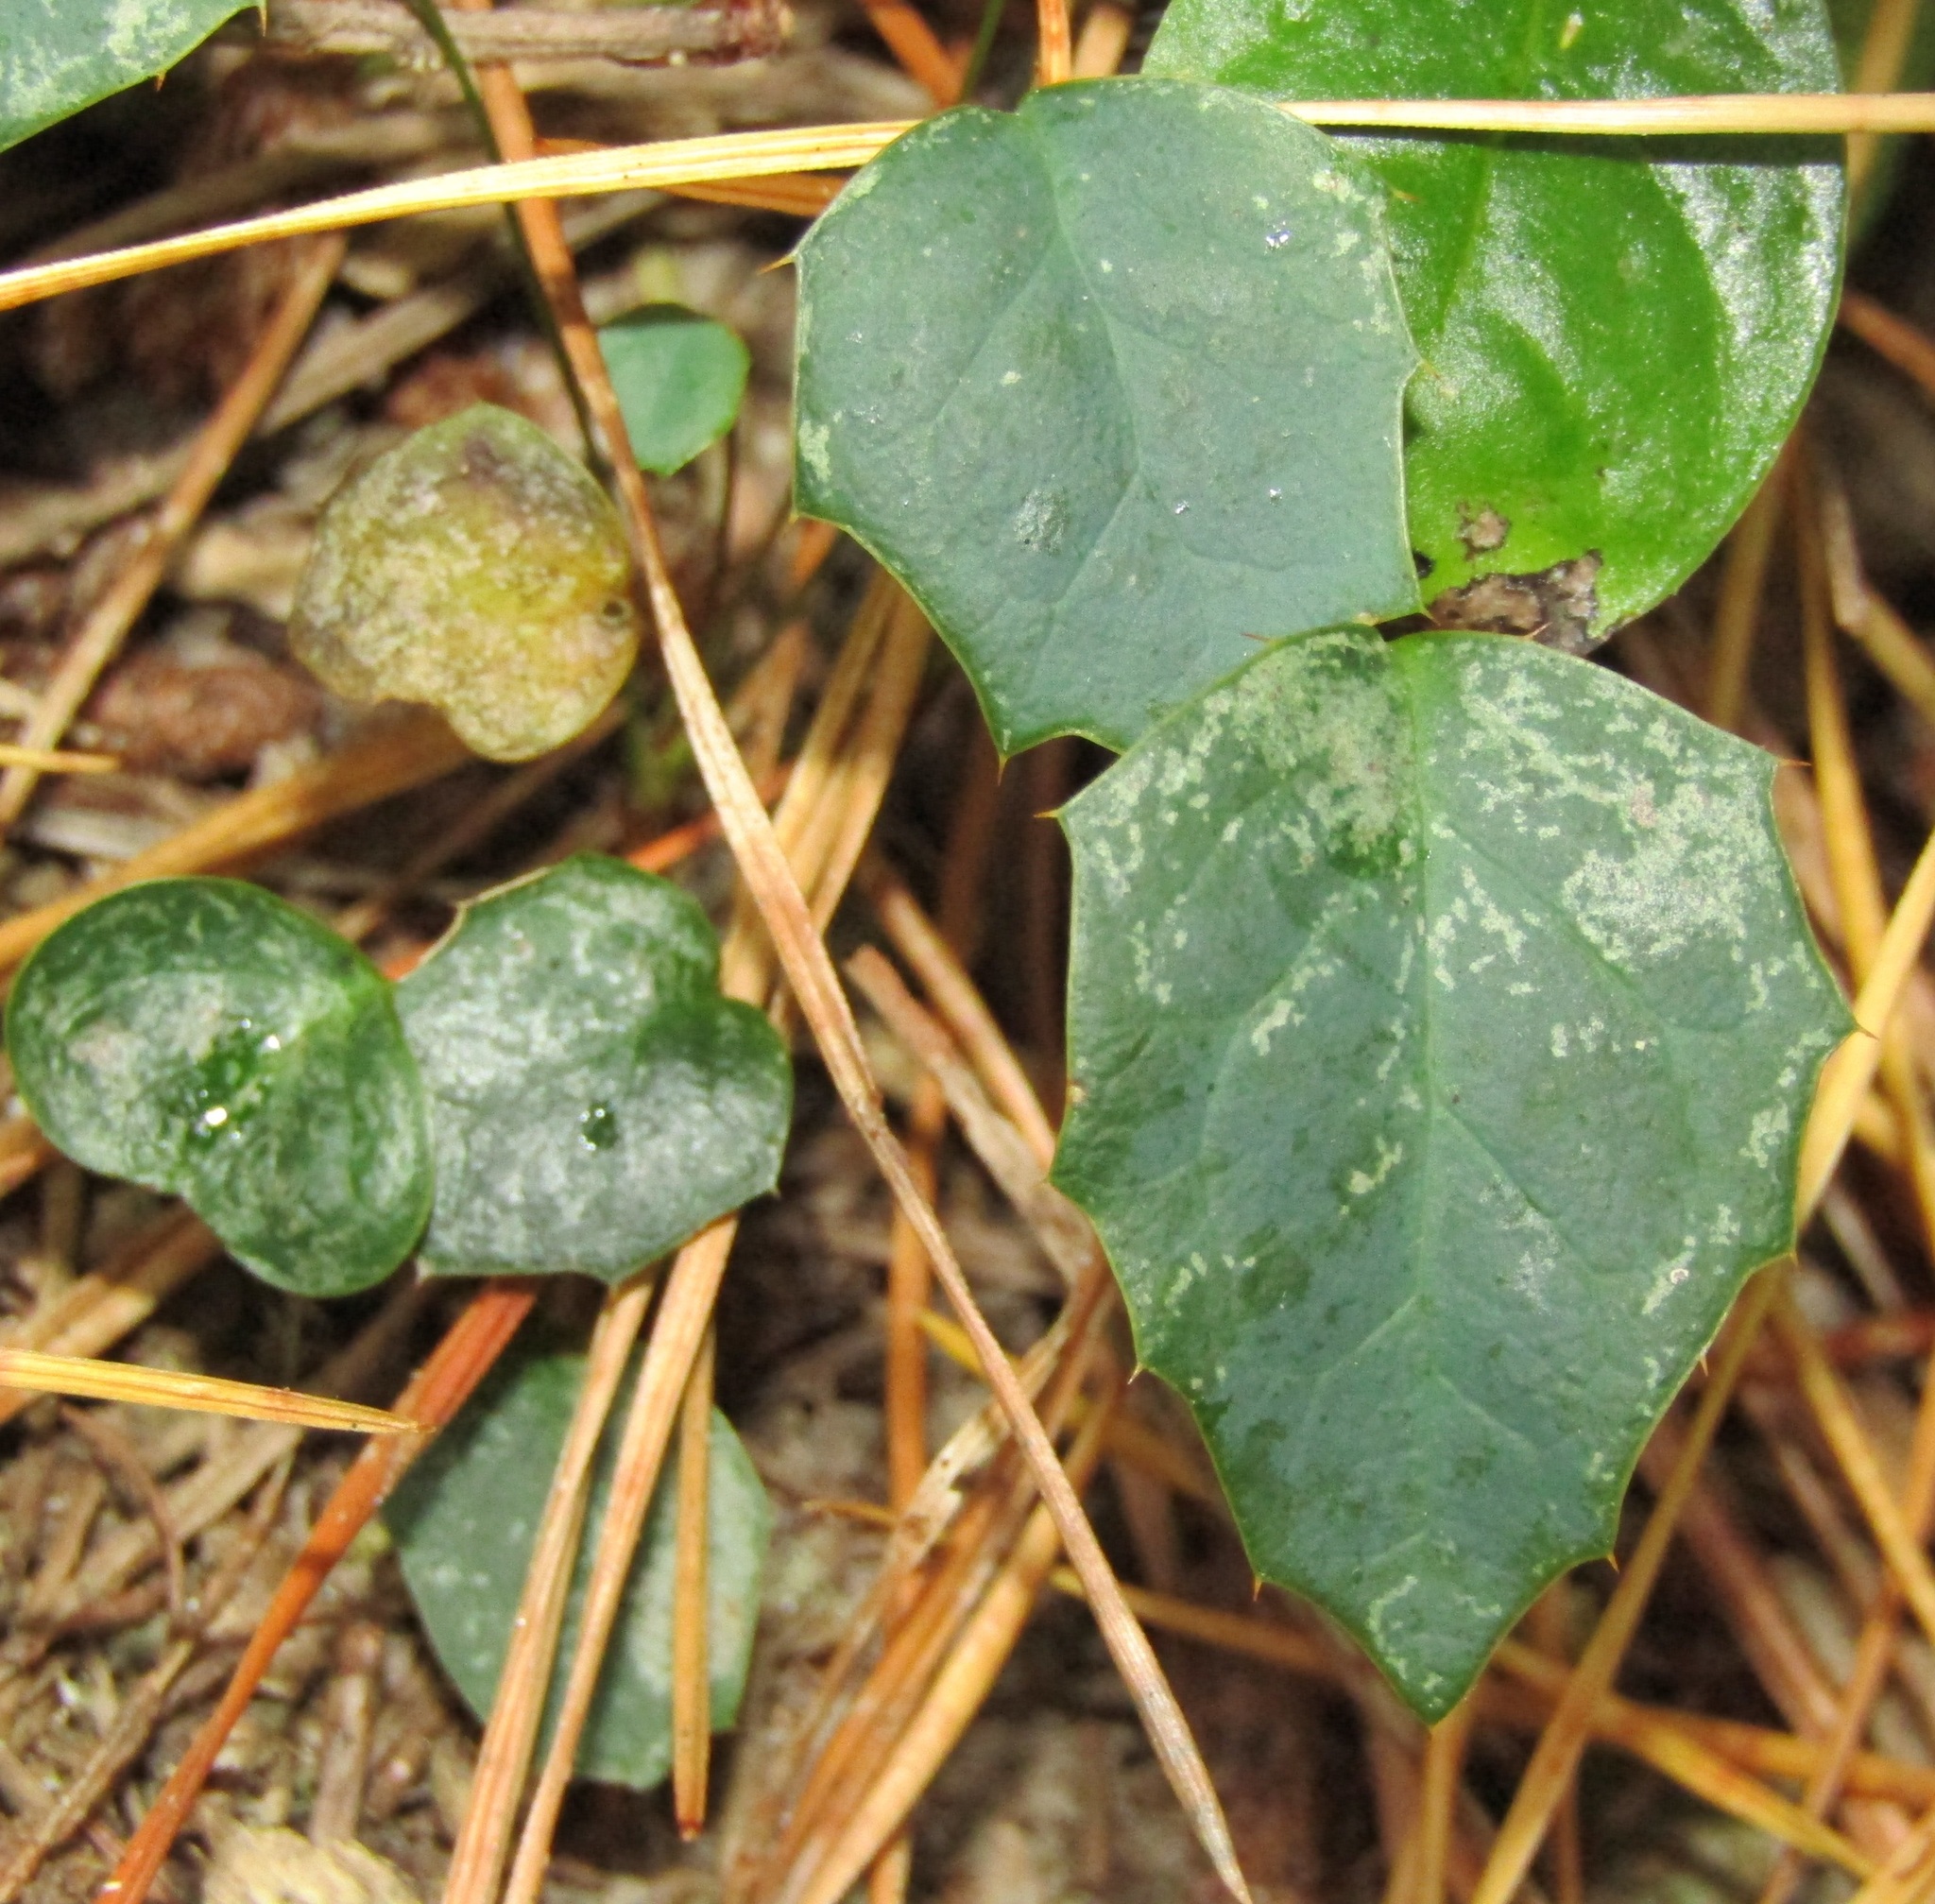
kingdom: Plantae
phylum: Tracheophyta
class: Magnoliopsida
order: Ranunculales
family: Berberidaceae
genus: Berberis
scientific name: Berberis glaucocarpa
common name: Great barberry
